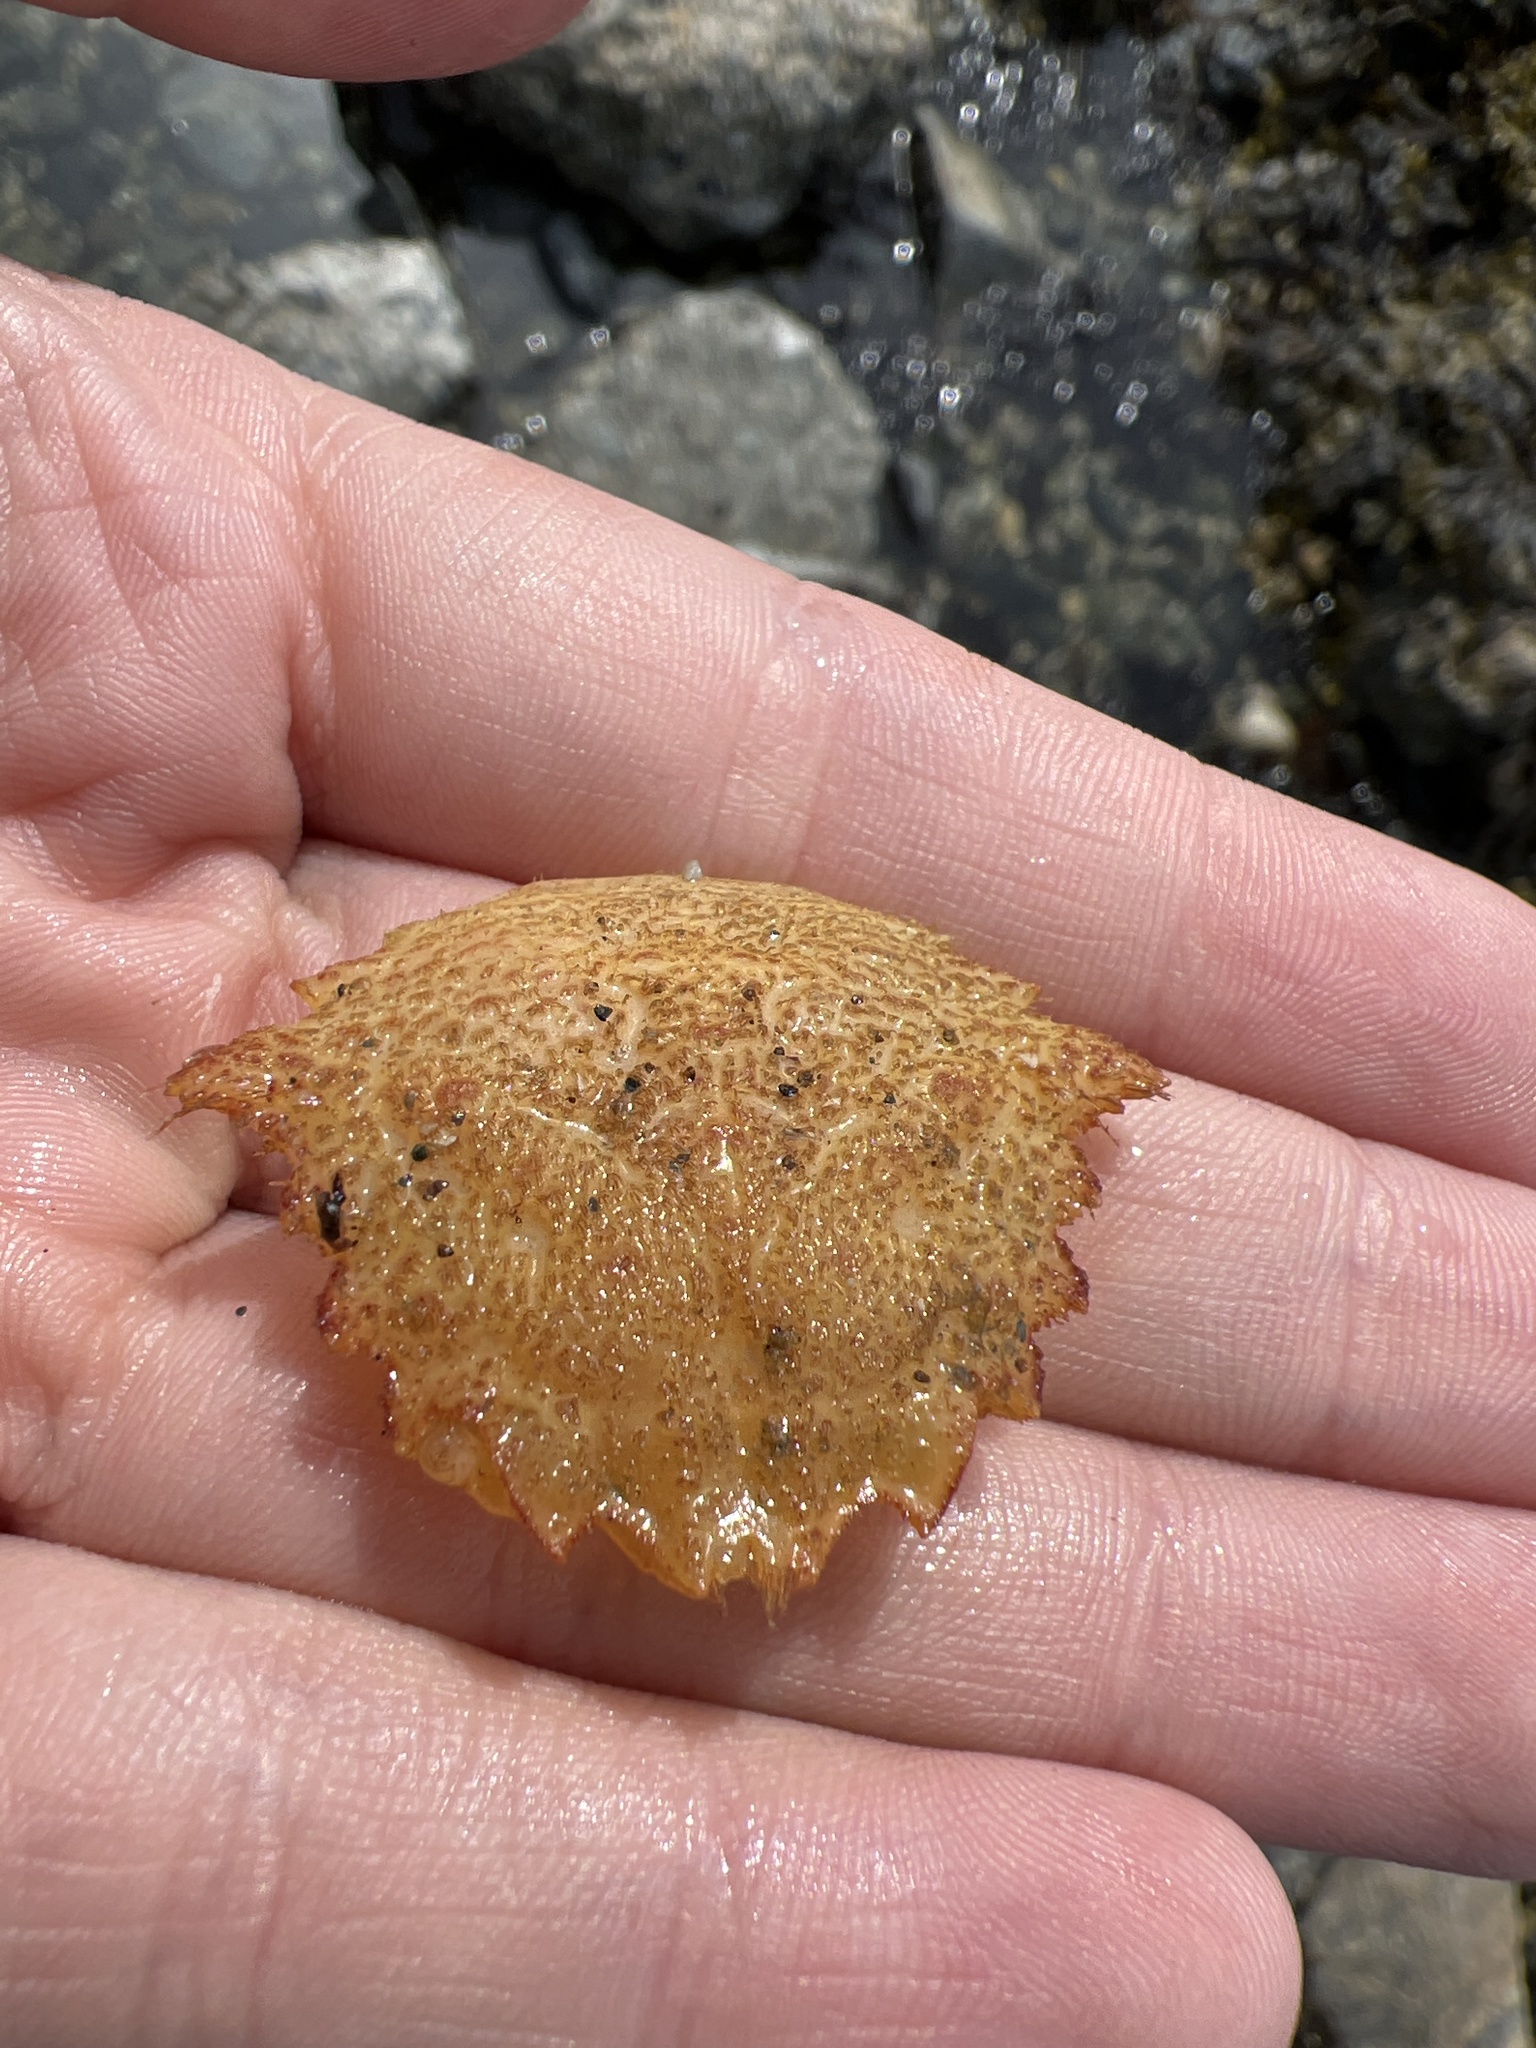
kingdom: Animalia
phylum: Arthropoda
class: Malacostraca
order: Decapoda
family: Cheiragonidae
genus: Telmessus
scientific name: Telmessus cheiragonus
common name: Helmet crab
